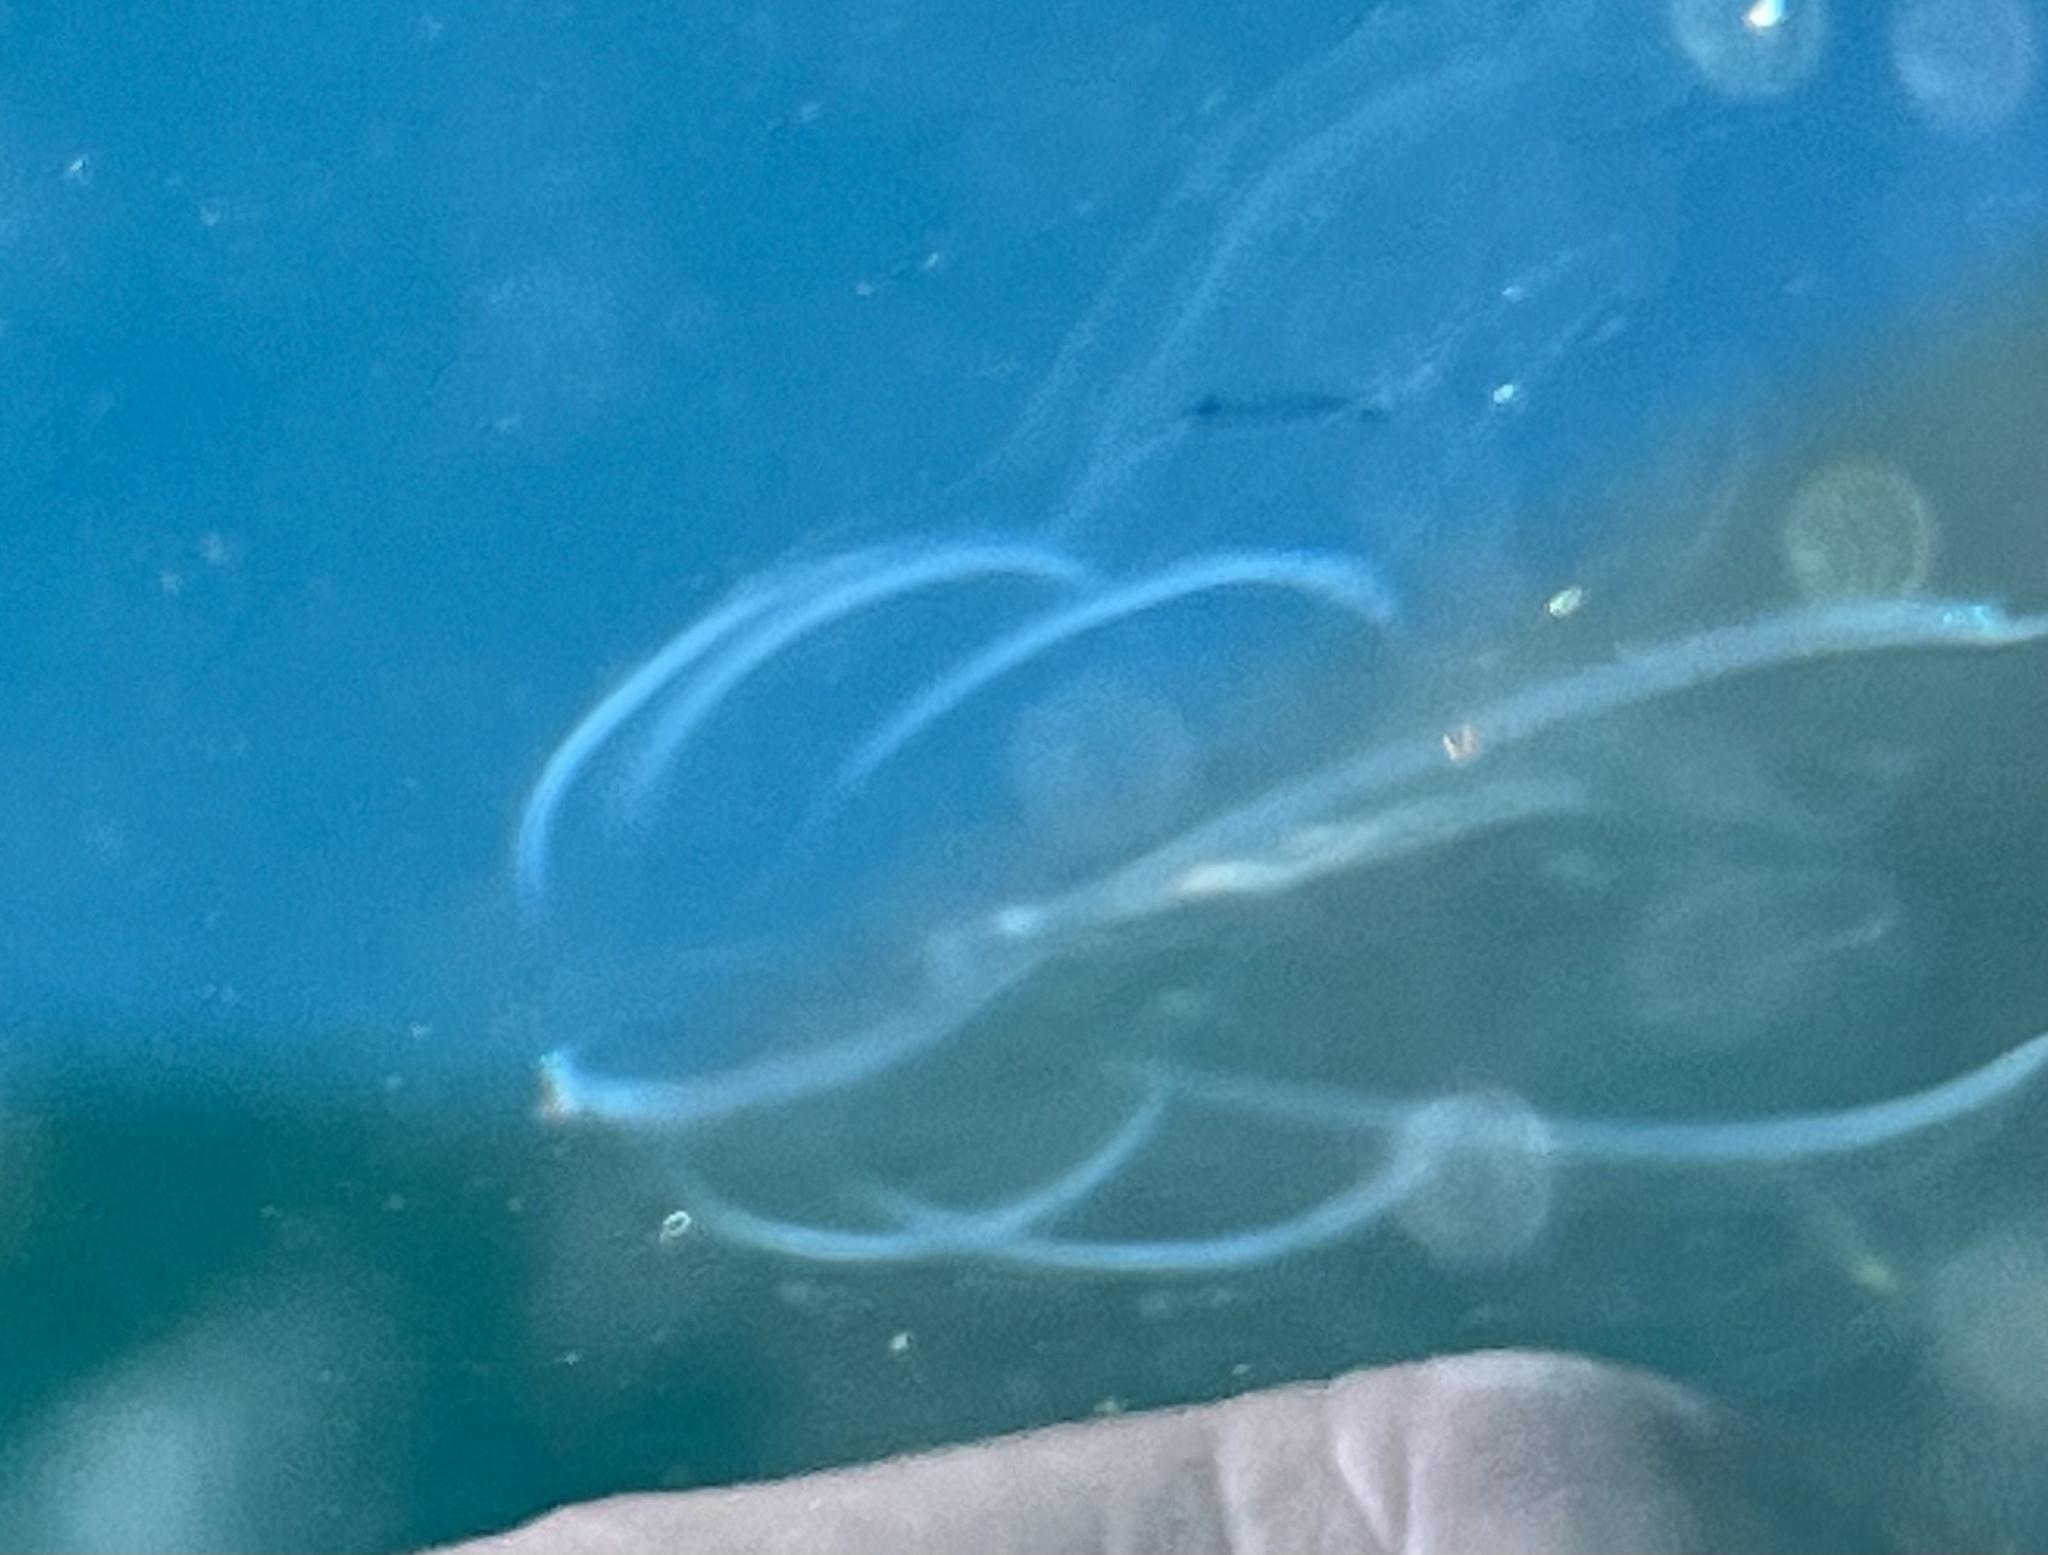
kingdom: Animalia
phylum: Ctenophora
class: Tentaculata
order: Lobata
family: Bolinopsidae
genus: Bolinopsis
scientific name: Bolinopsis microptera
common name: Short-lobed comb jelly
